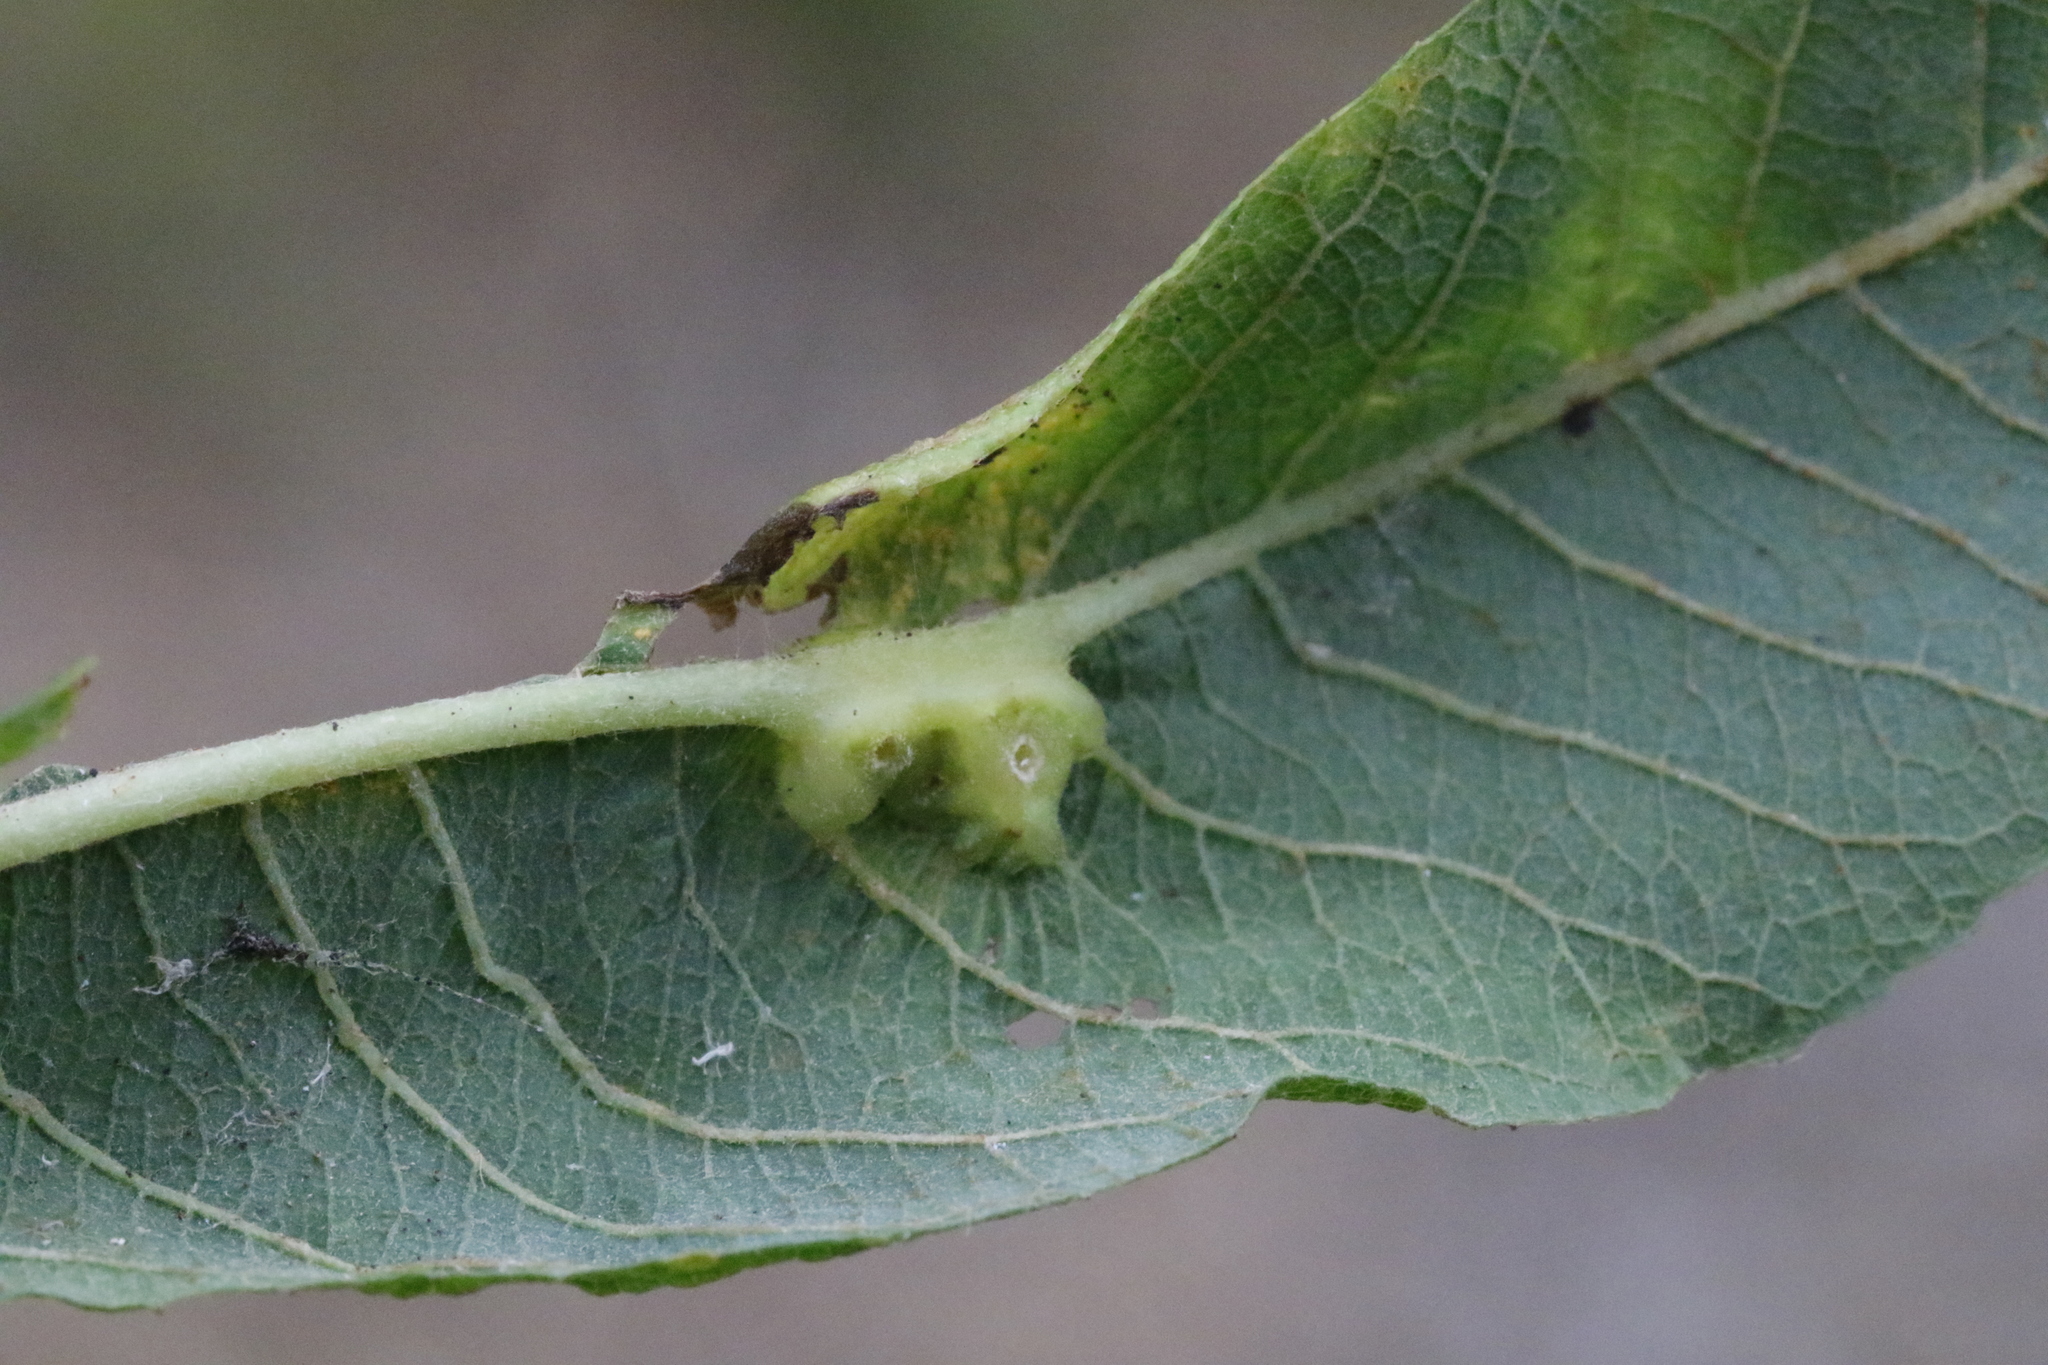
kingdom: Animalia
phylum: Arthropoda
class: Insecta
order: Diptera
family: Cecidomyiidae
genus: Iteomyia
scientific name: Iteomyia major
